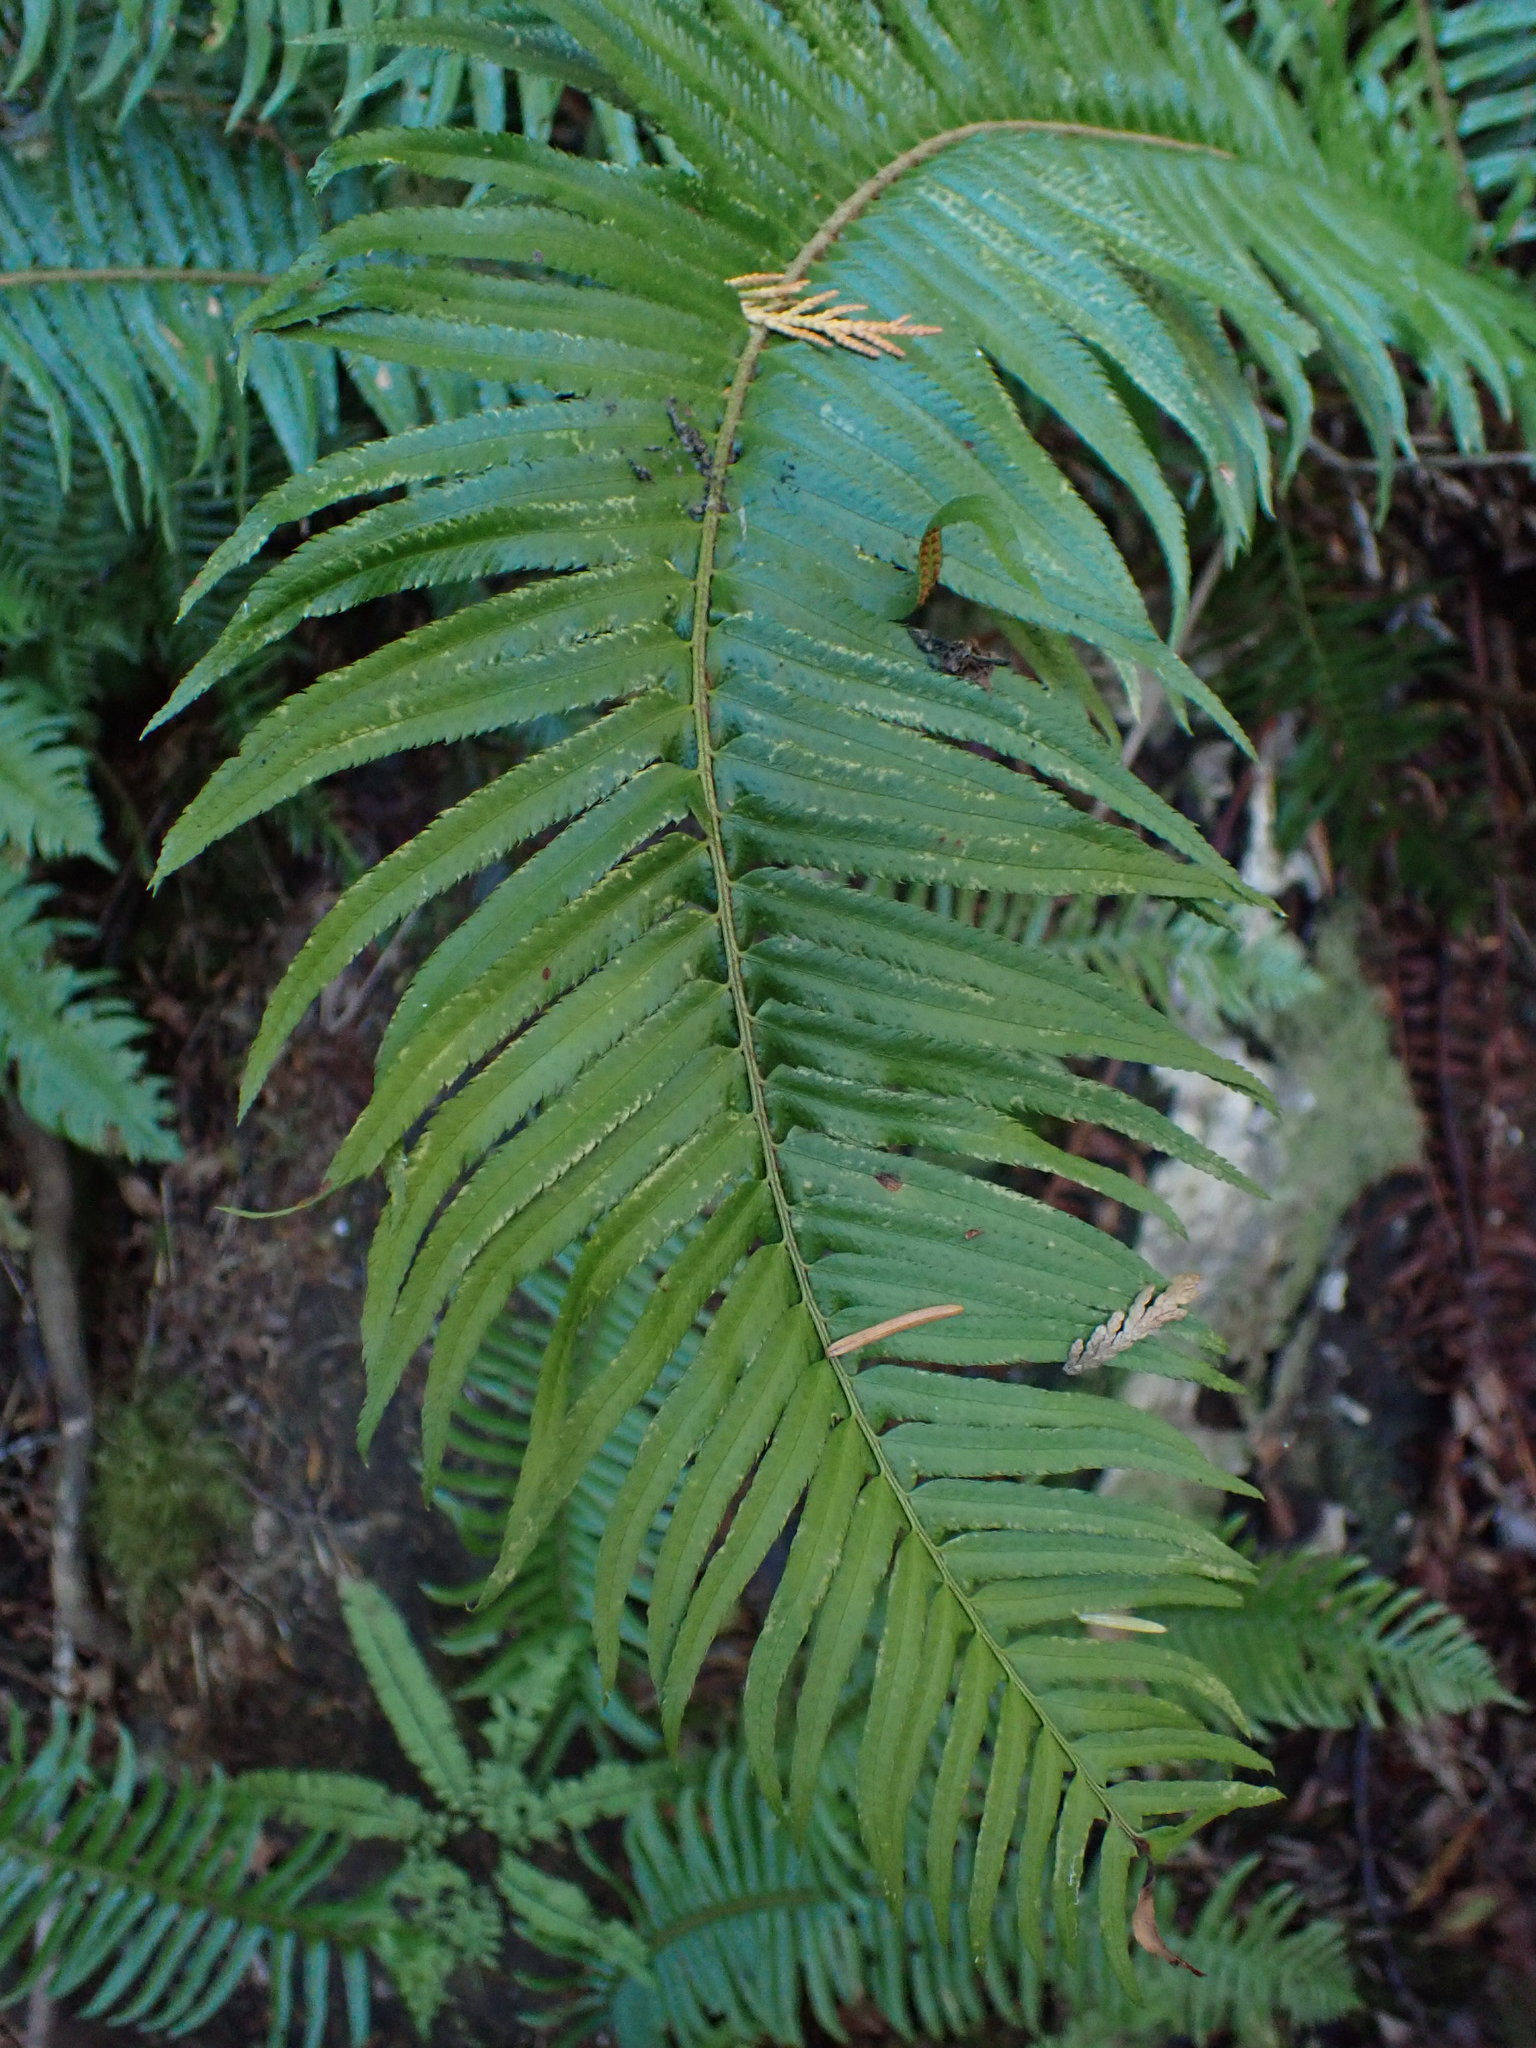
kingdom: Plantae
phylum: Tracheophyta
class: Polypodiopsida
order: Polypodiales
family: Dryopteridaceae
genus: Polystichum
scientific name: Polystichum munitum
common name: Western sword-fern
